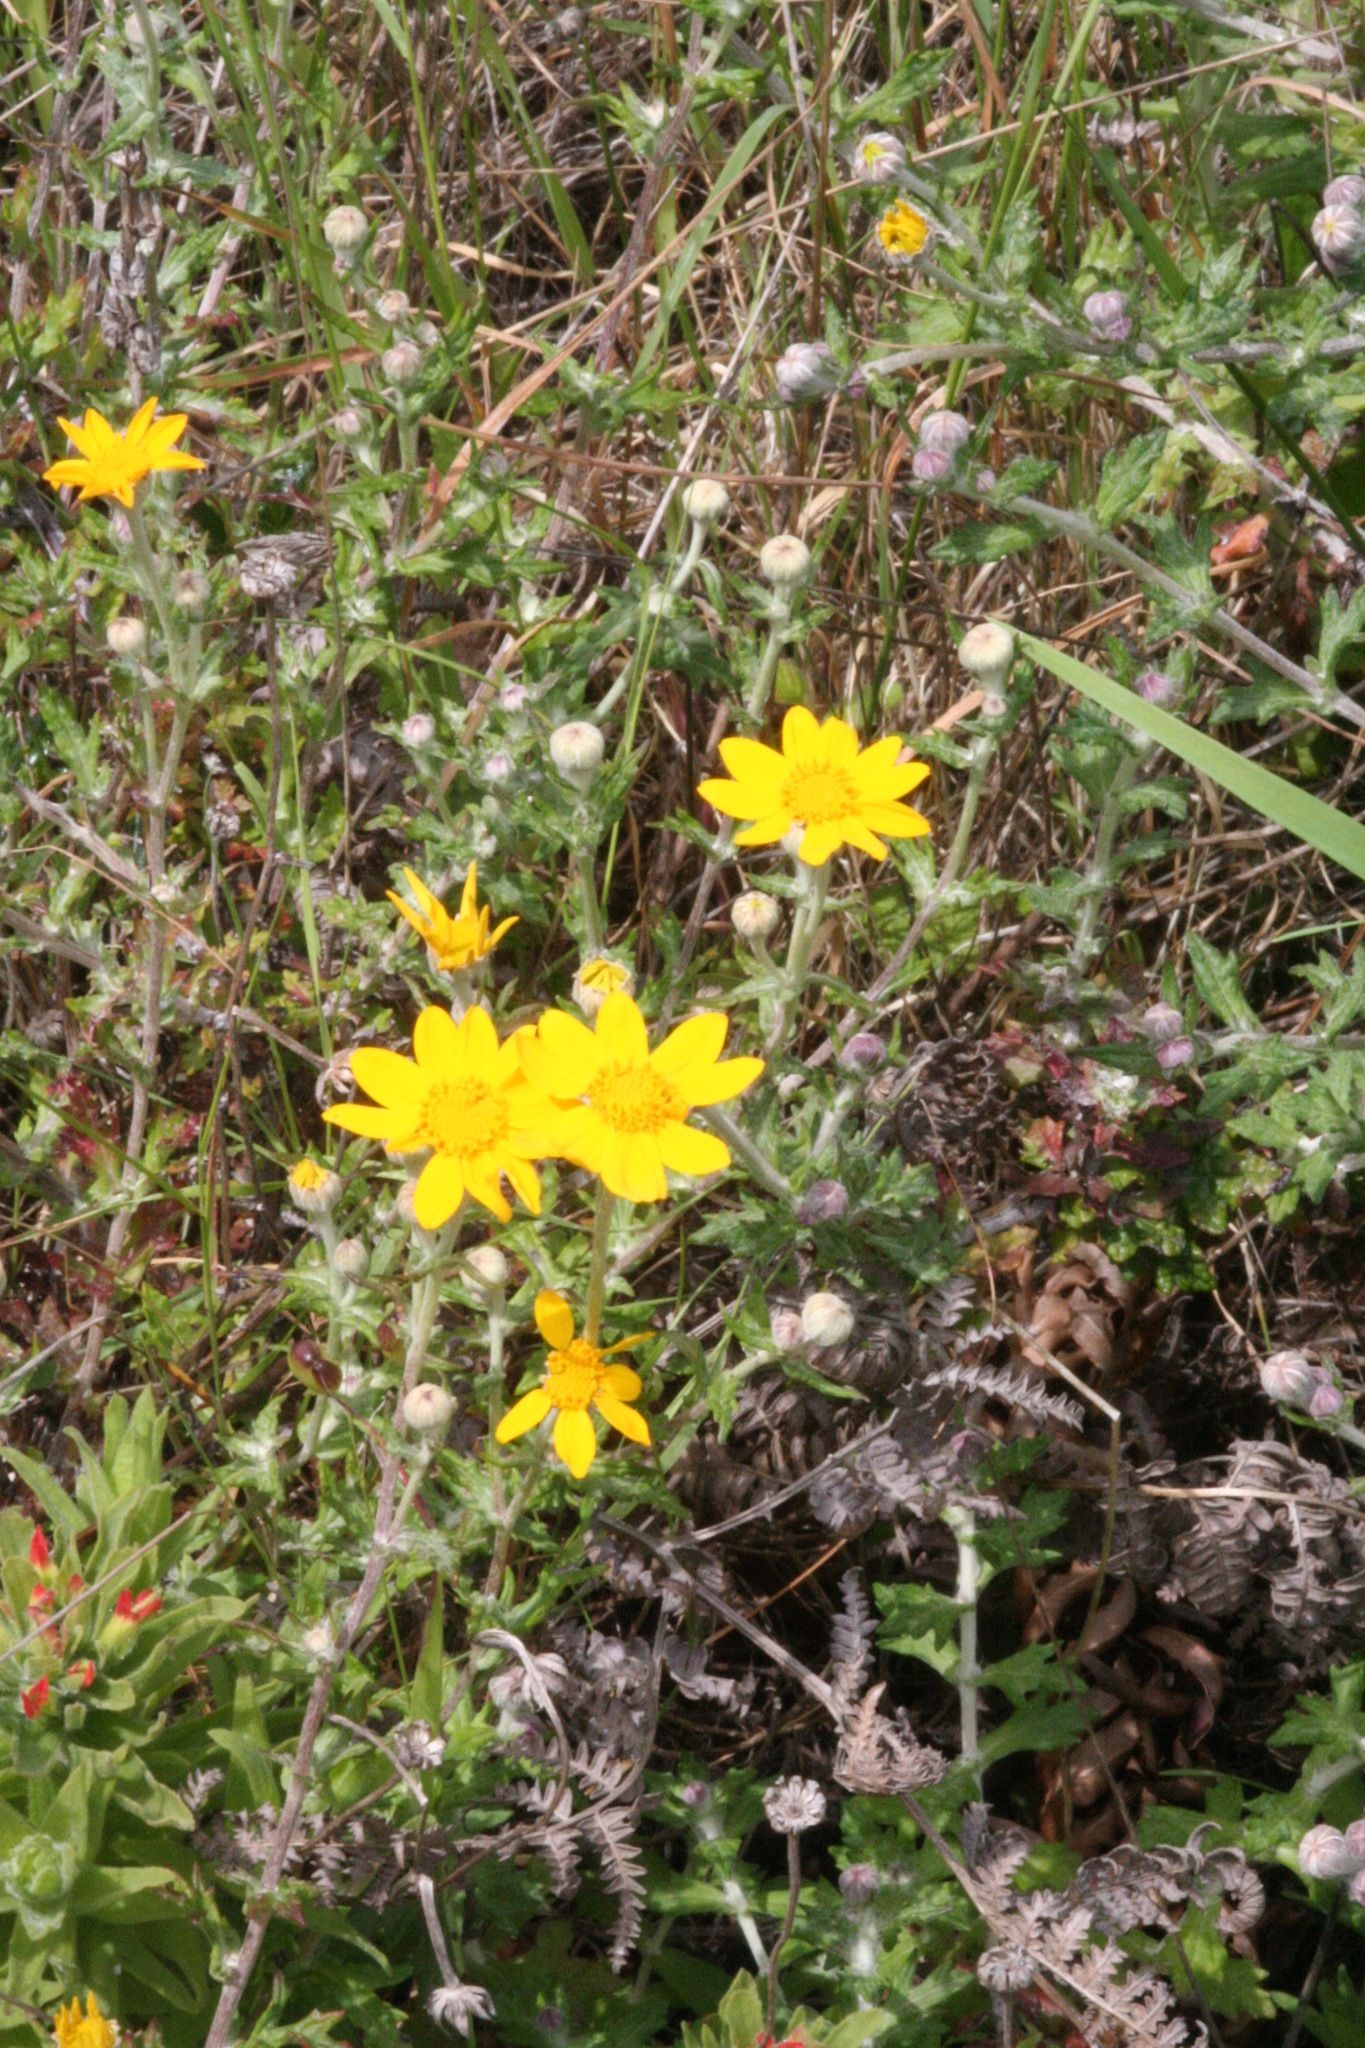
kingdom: Plantae
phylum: Tracheophyta
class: Magnoliopsida
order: Asterales
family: Asteraceae
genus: Eriophyllum
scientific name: Eriophyllum lanatum
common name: Common woolly-sunflower
